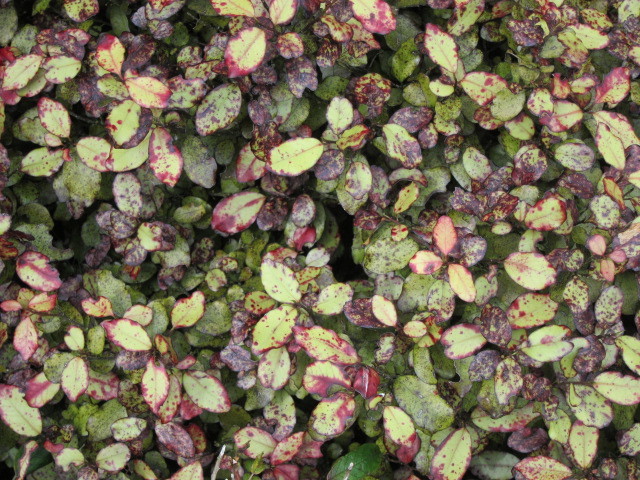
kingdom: Plantae
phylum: Tracheophyta
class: Magnoliopsida
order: Canellales
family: Winteraceae
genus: Pseudowintera
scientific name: Pseudowintera colorata
